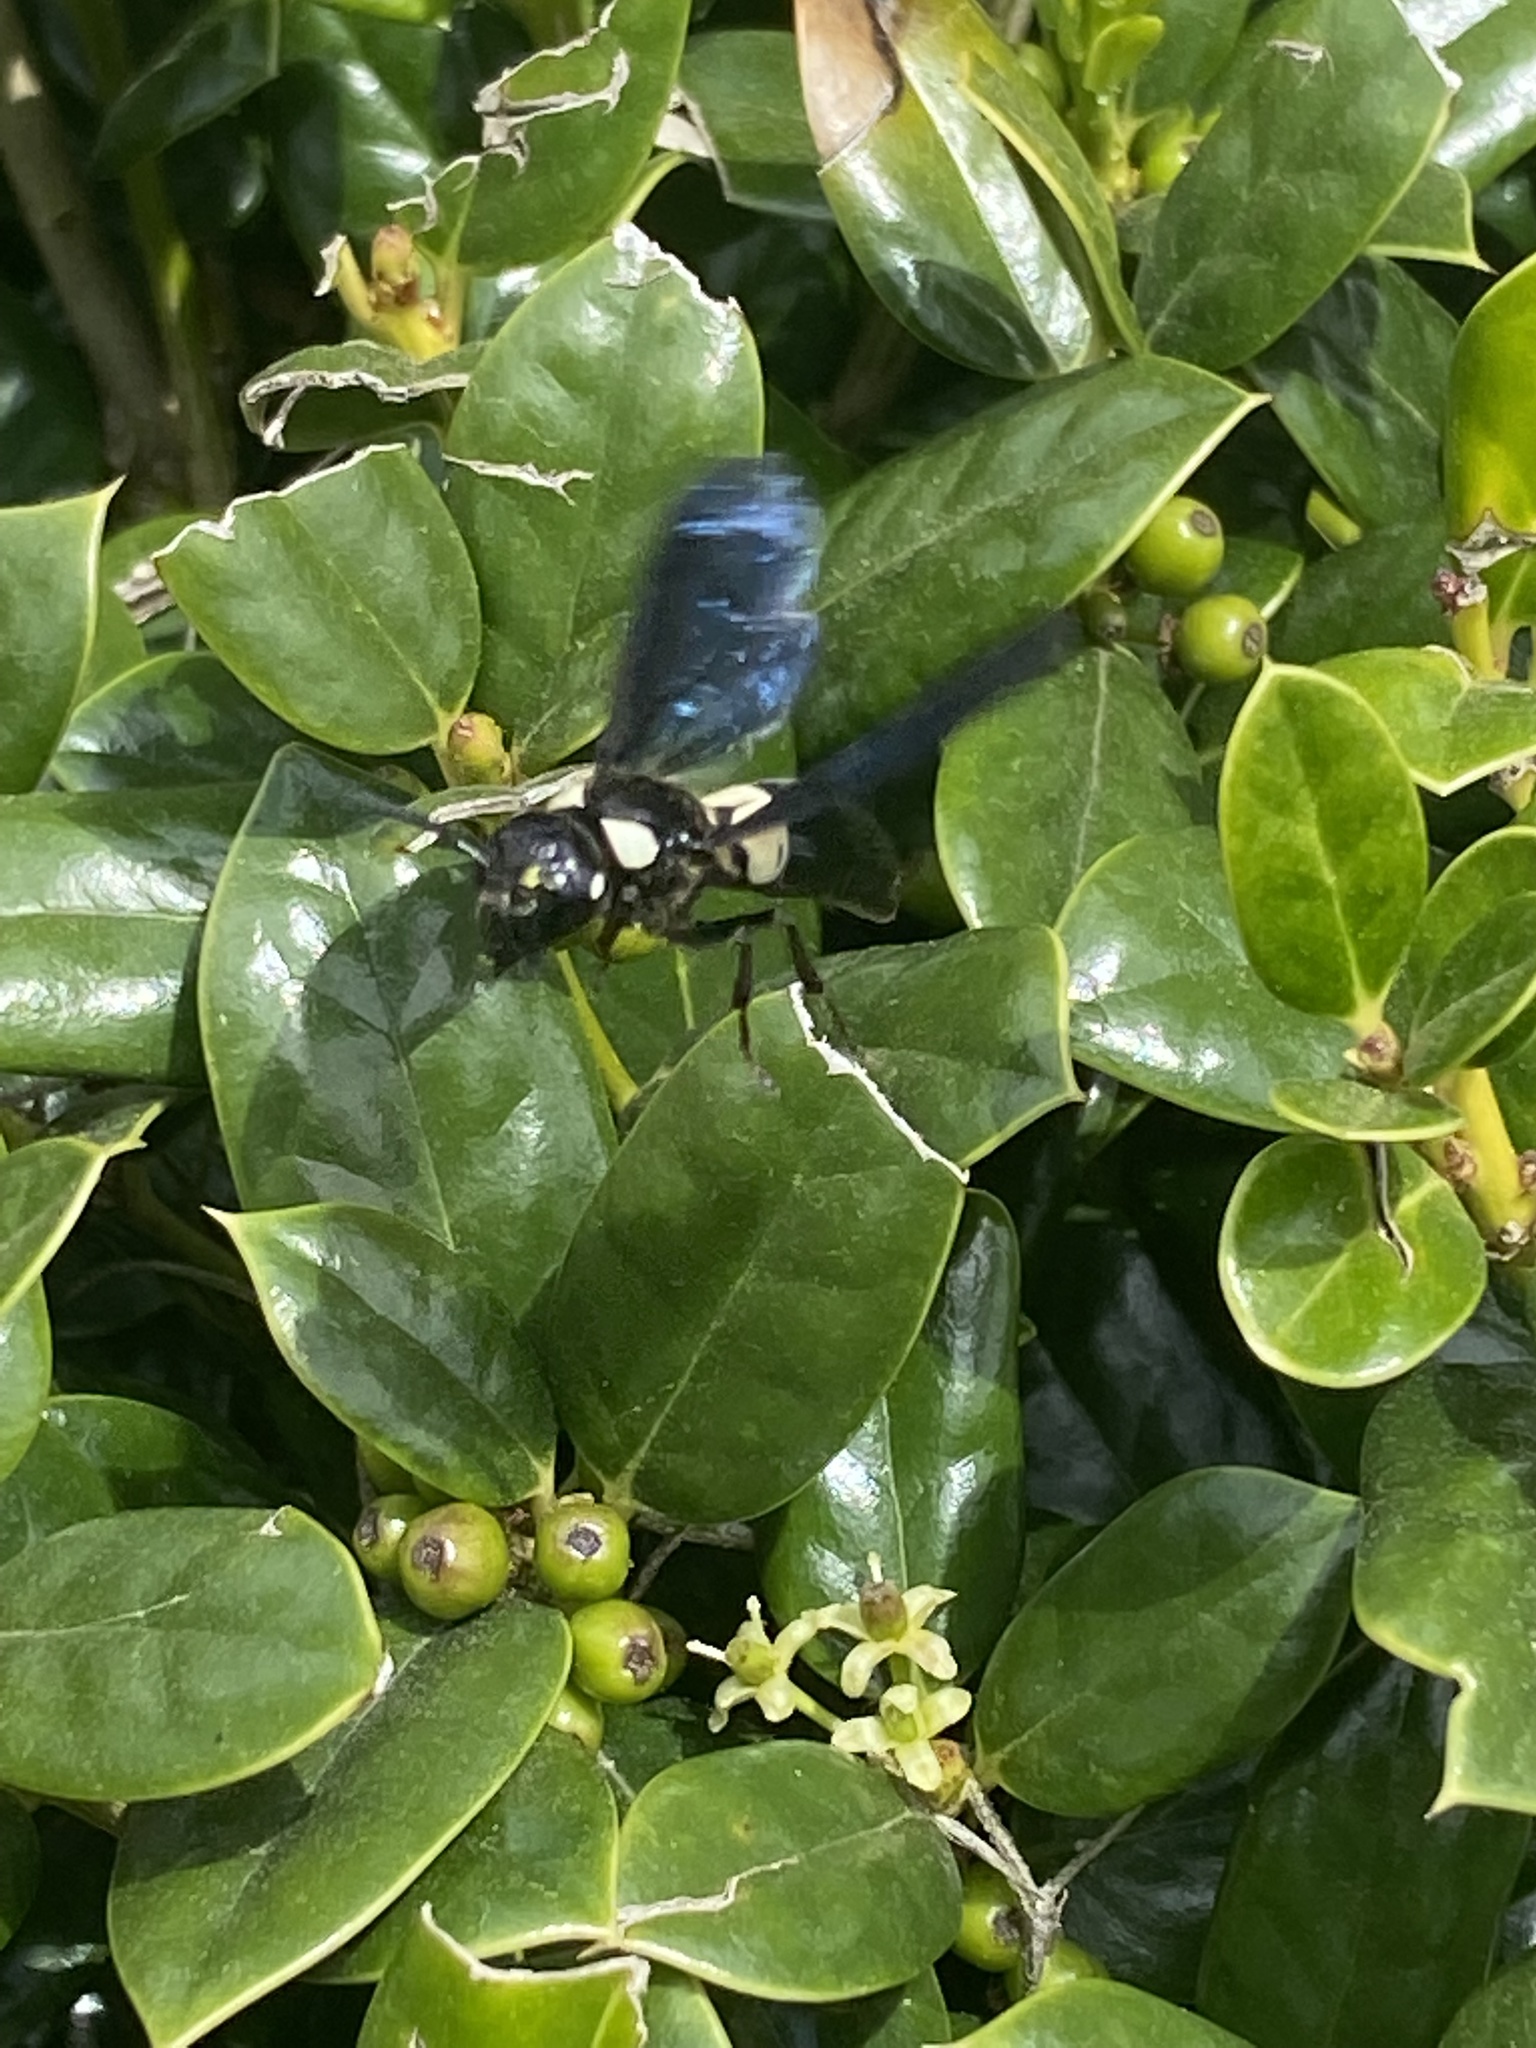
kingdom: Animalia
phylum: Arthropoda
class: Insecta
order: Hymenoptera
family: Eumenidae
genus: Euodynerus
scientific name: Euodynerus bidens
